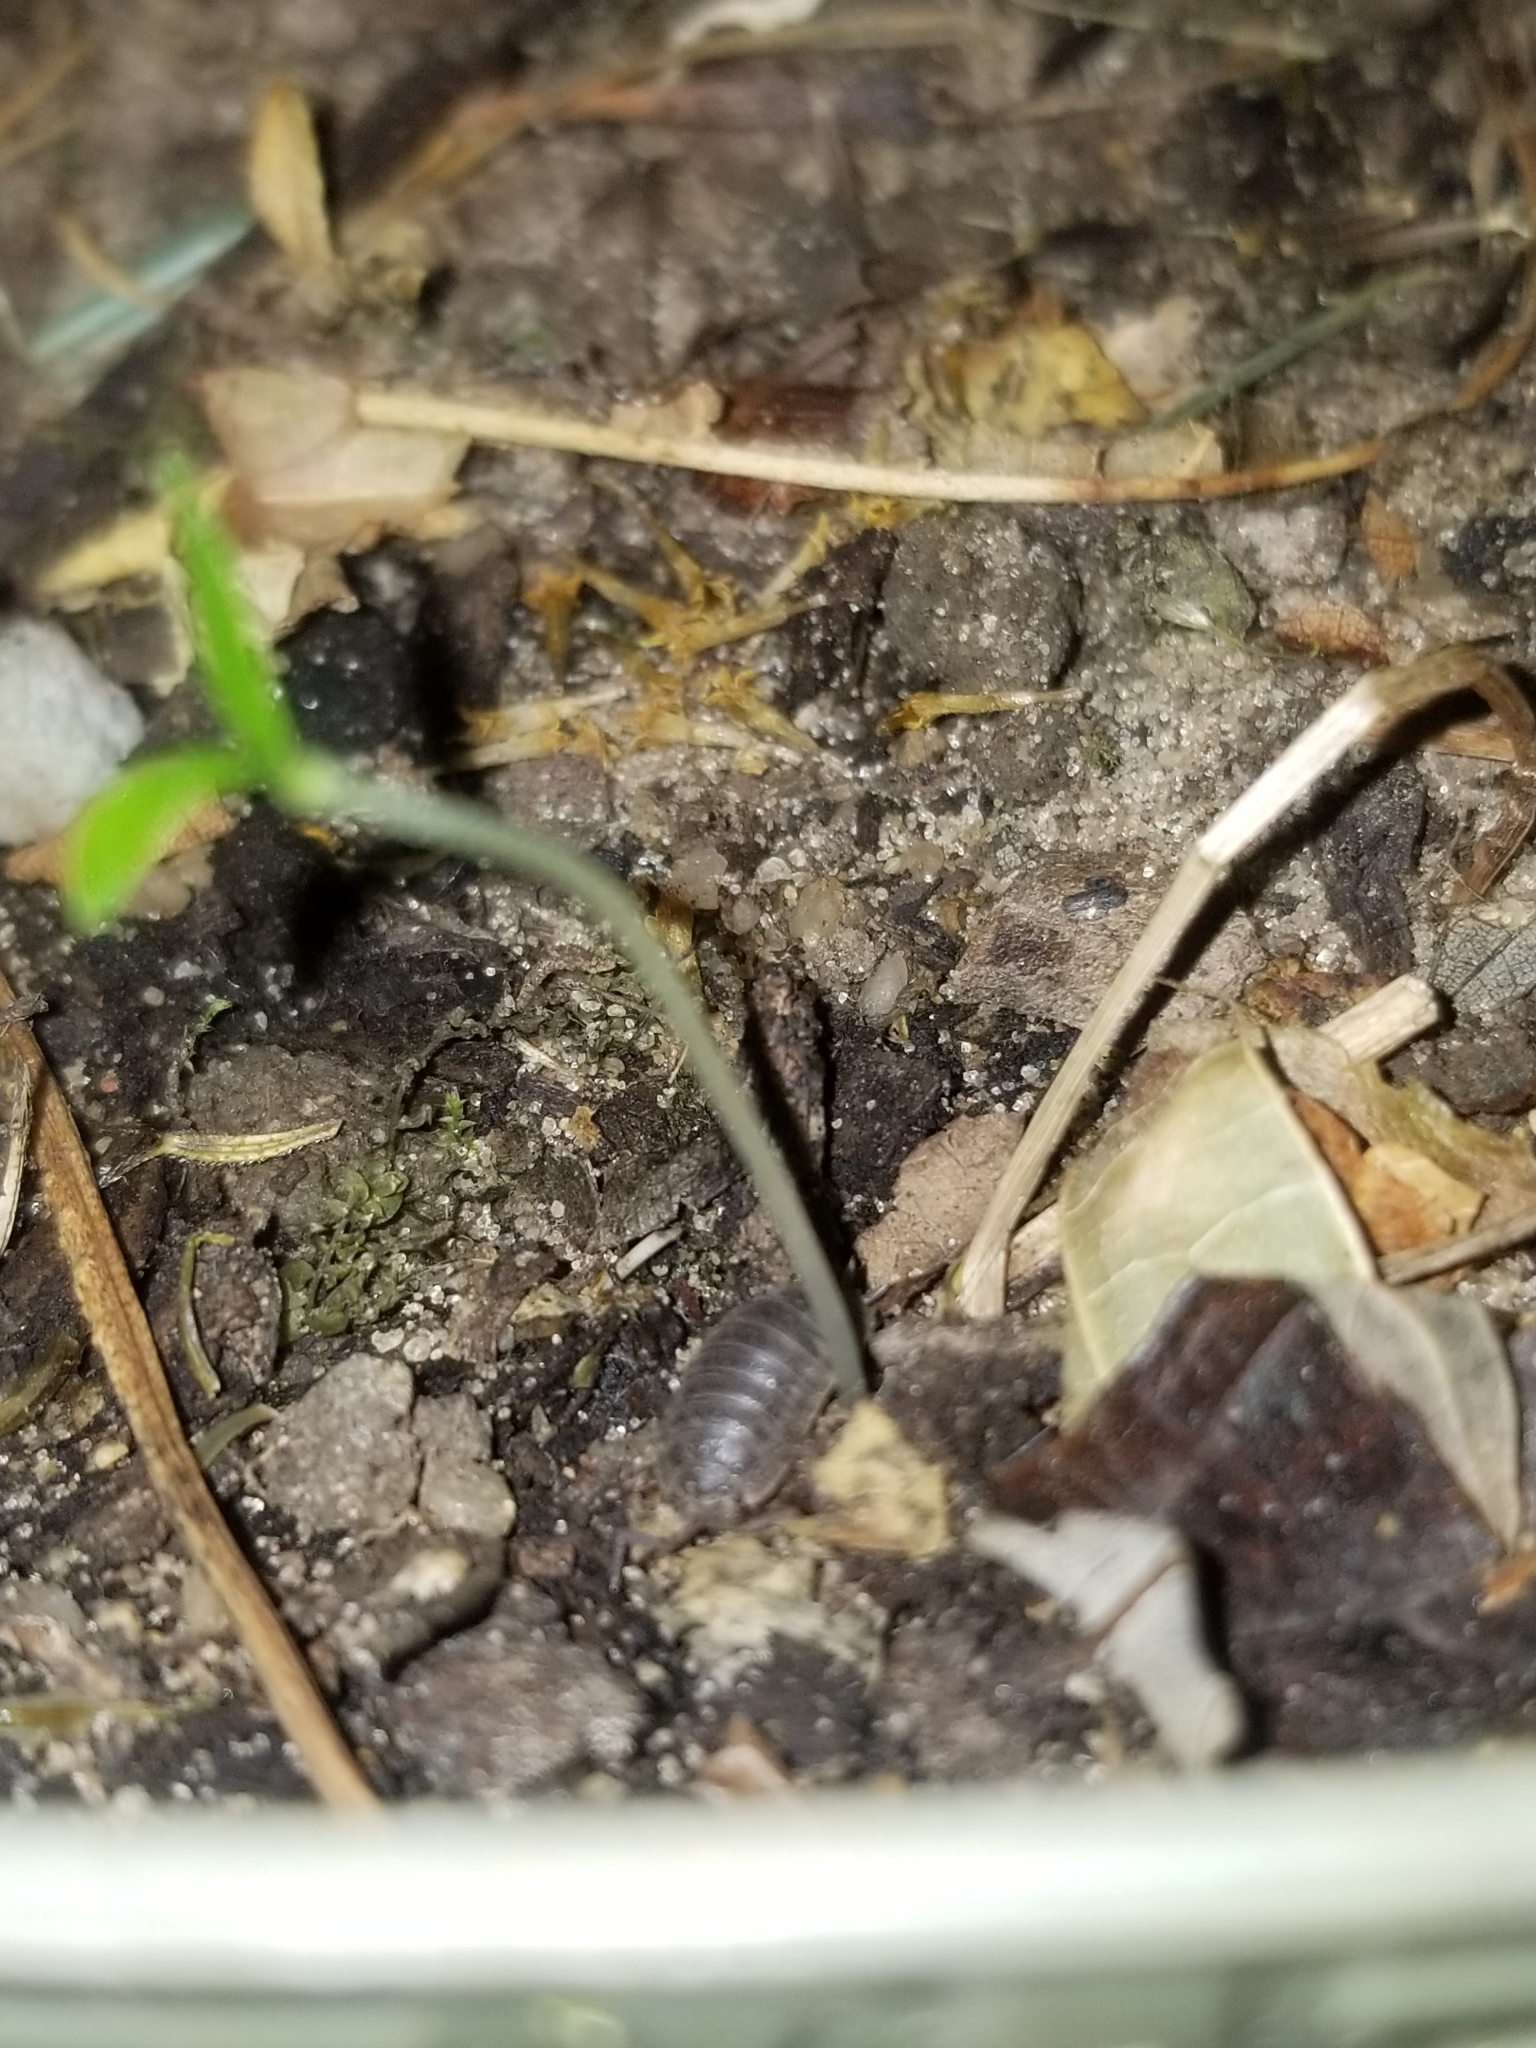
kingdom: Animalia
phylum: Arthropoda
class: Malacostraca
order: Isopoda
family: Trachelipodidae
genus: Trachelipus
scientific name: Trachelipus rathkii
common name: Isopod
